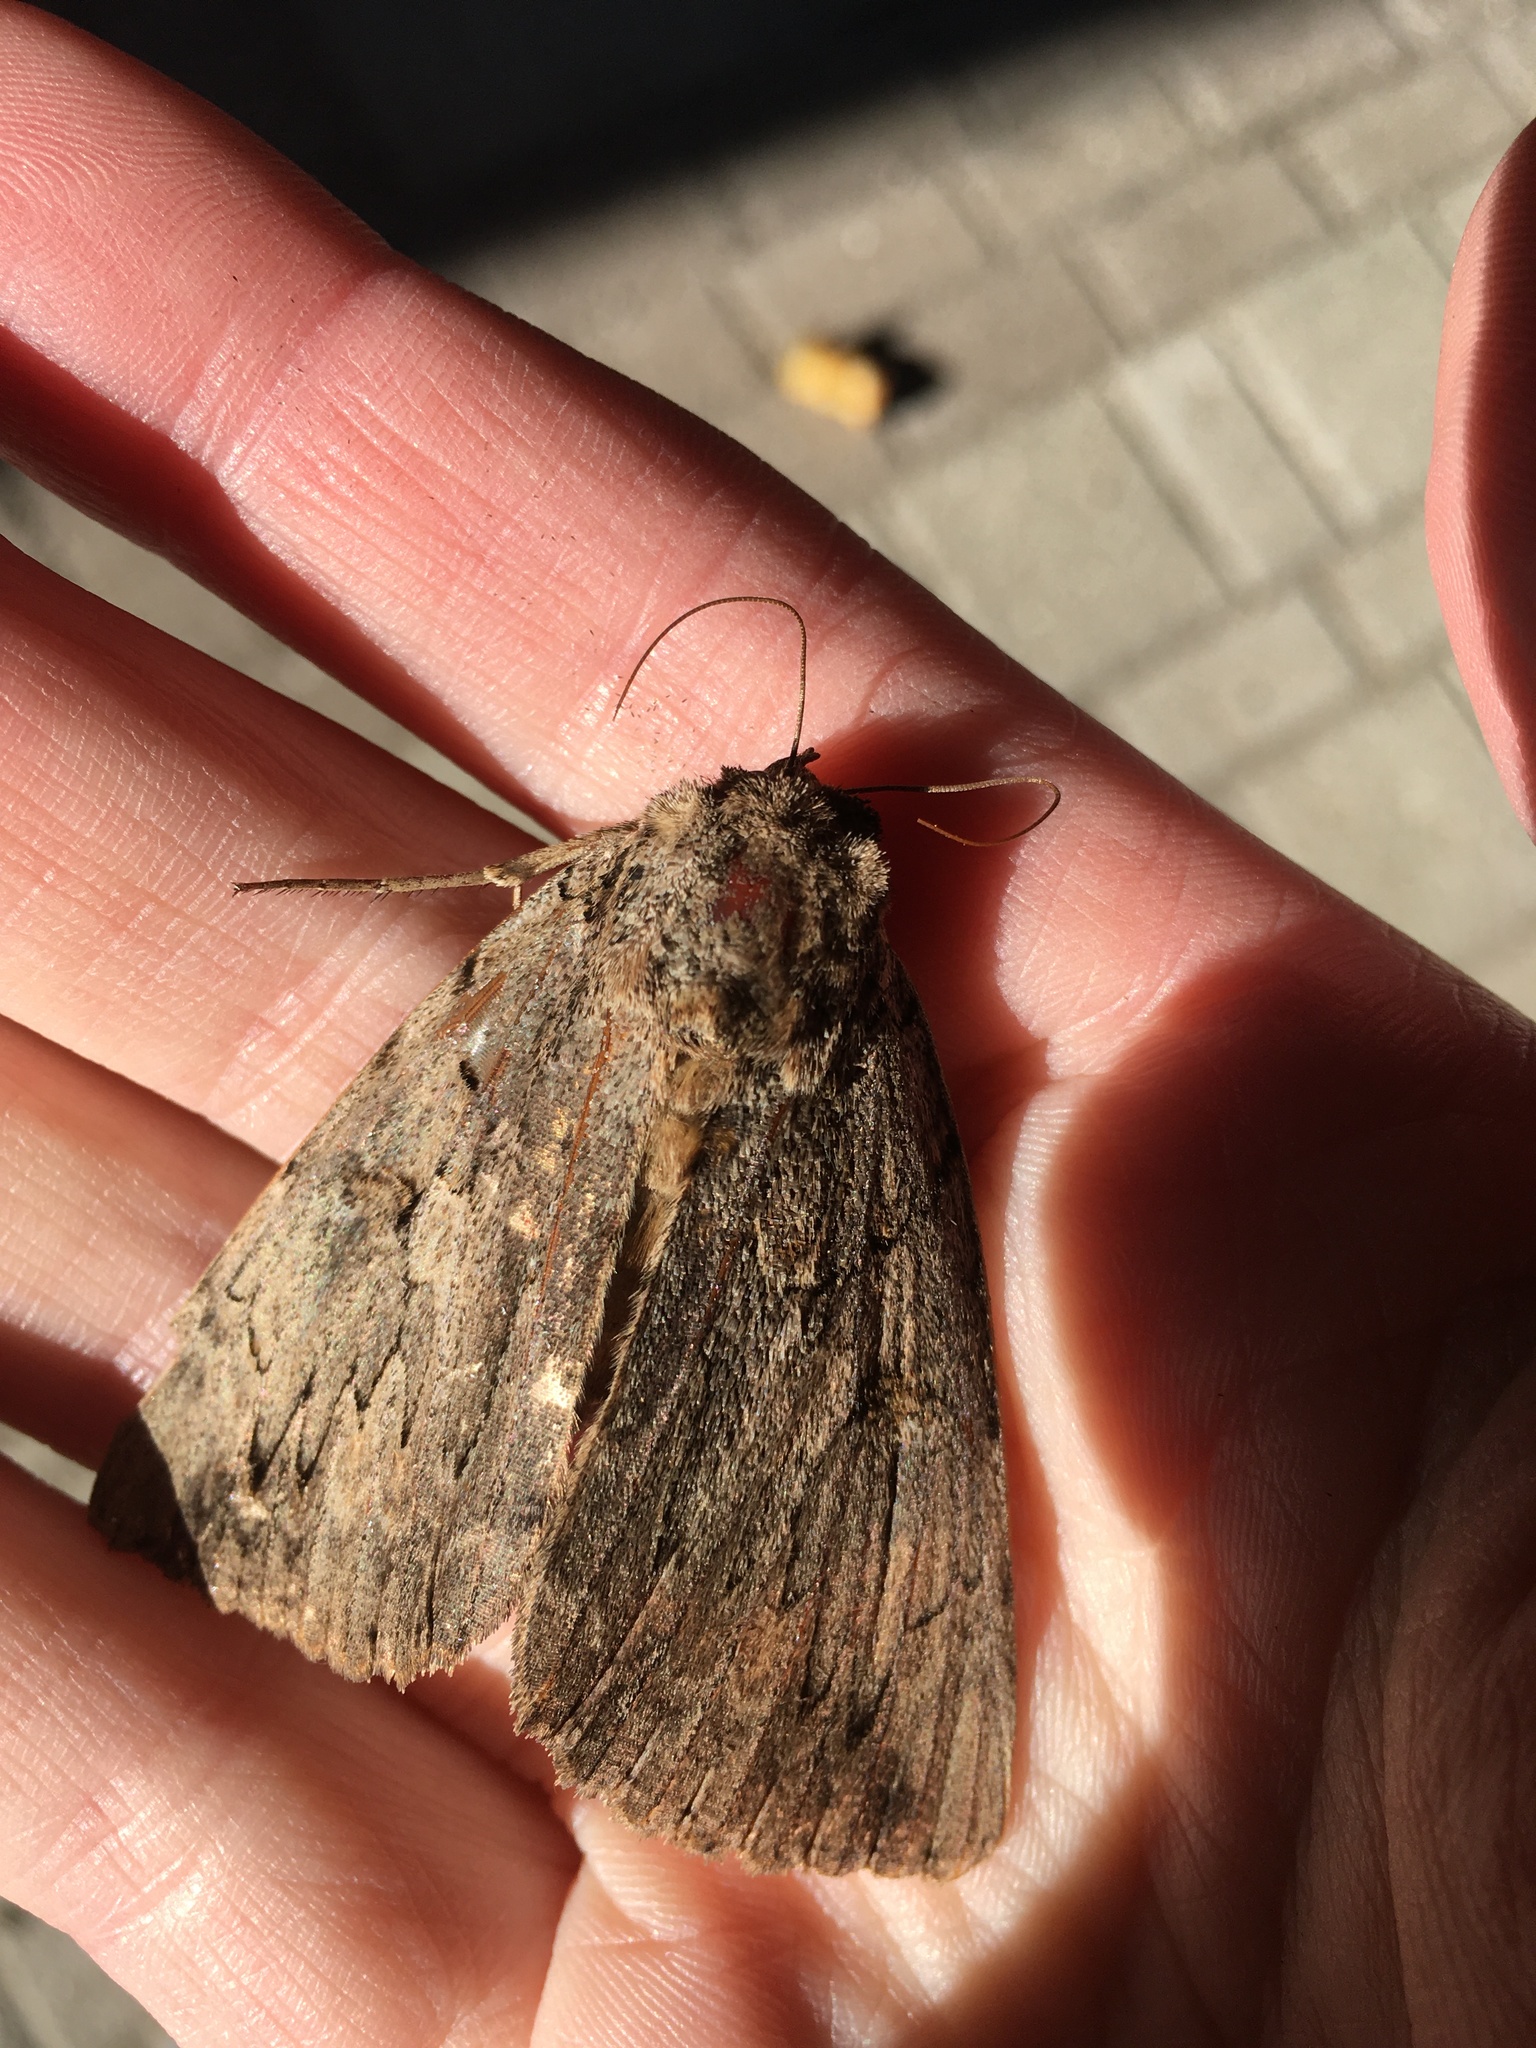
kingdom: Animalia
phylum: Arthropoda
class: Insecta
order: Lepidoptera
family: Erebidae
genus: Catocala
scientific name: Catocala amatrix
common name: Sweetheart underwing
